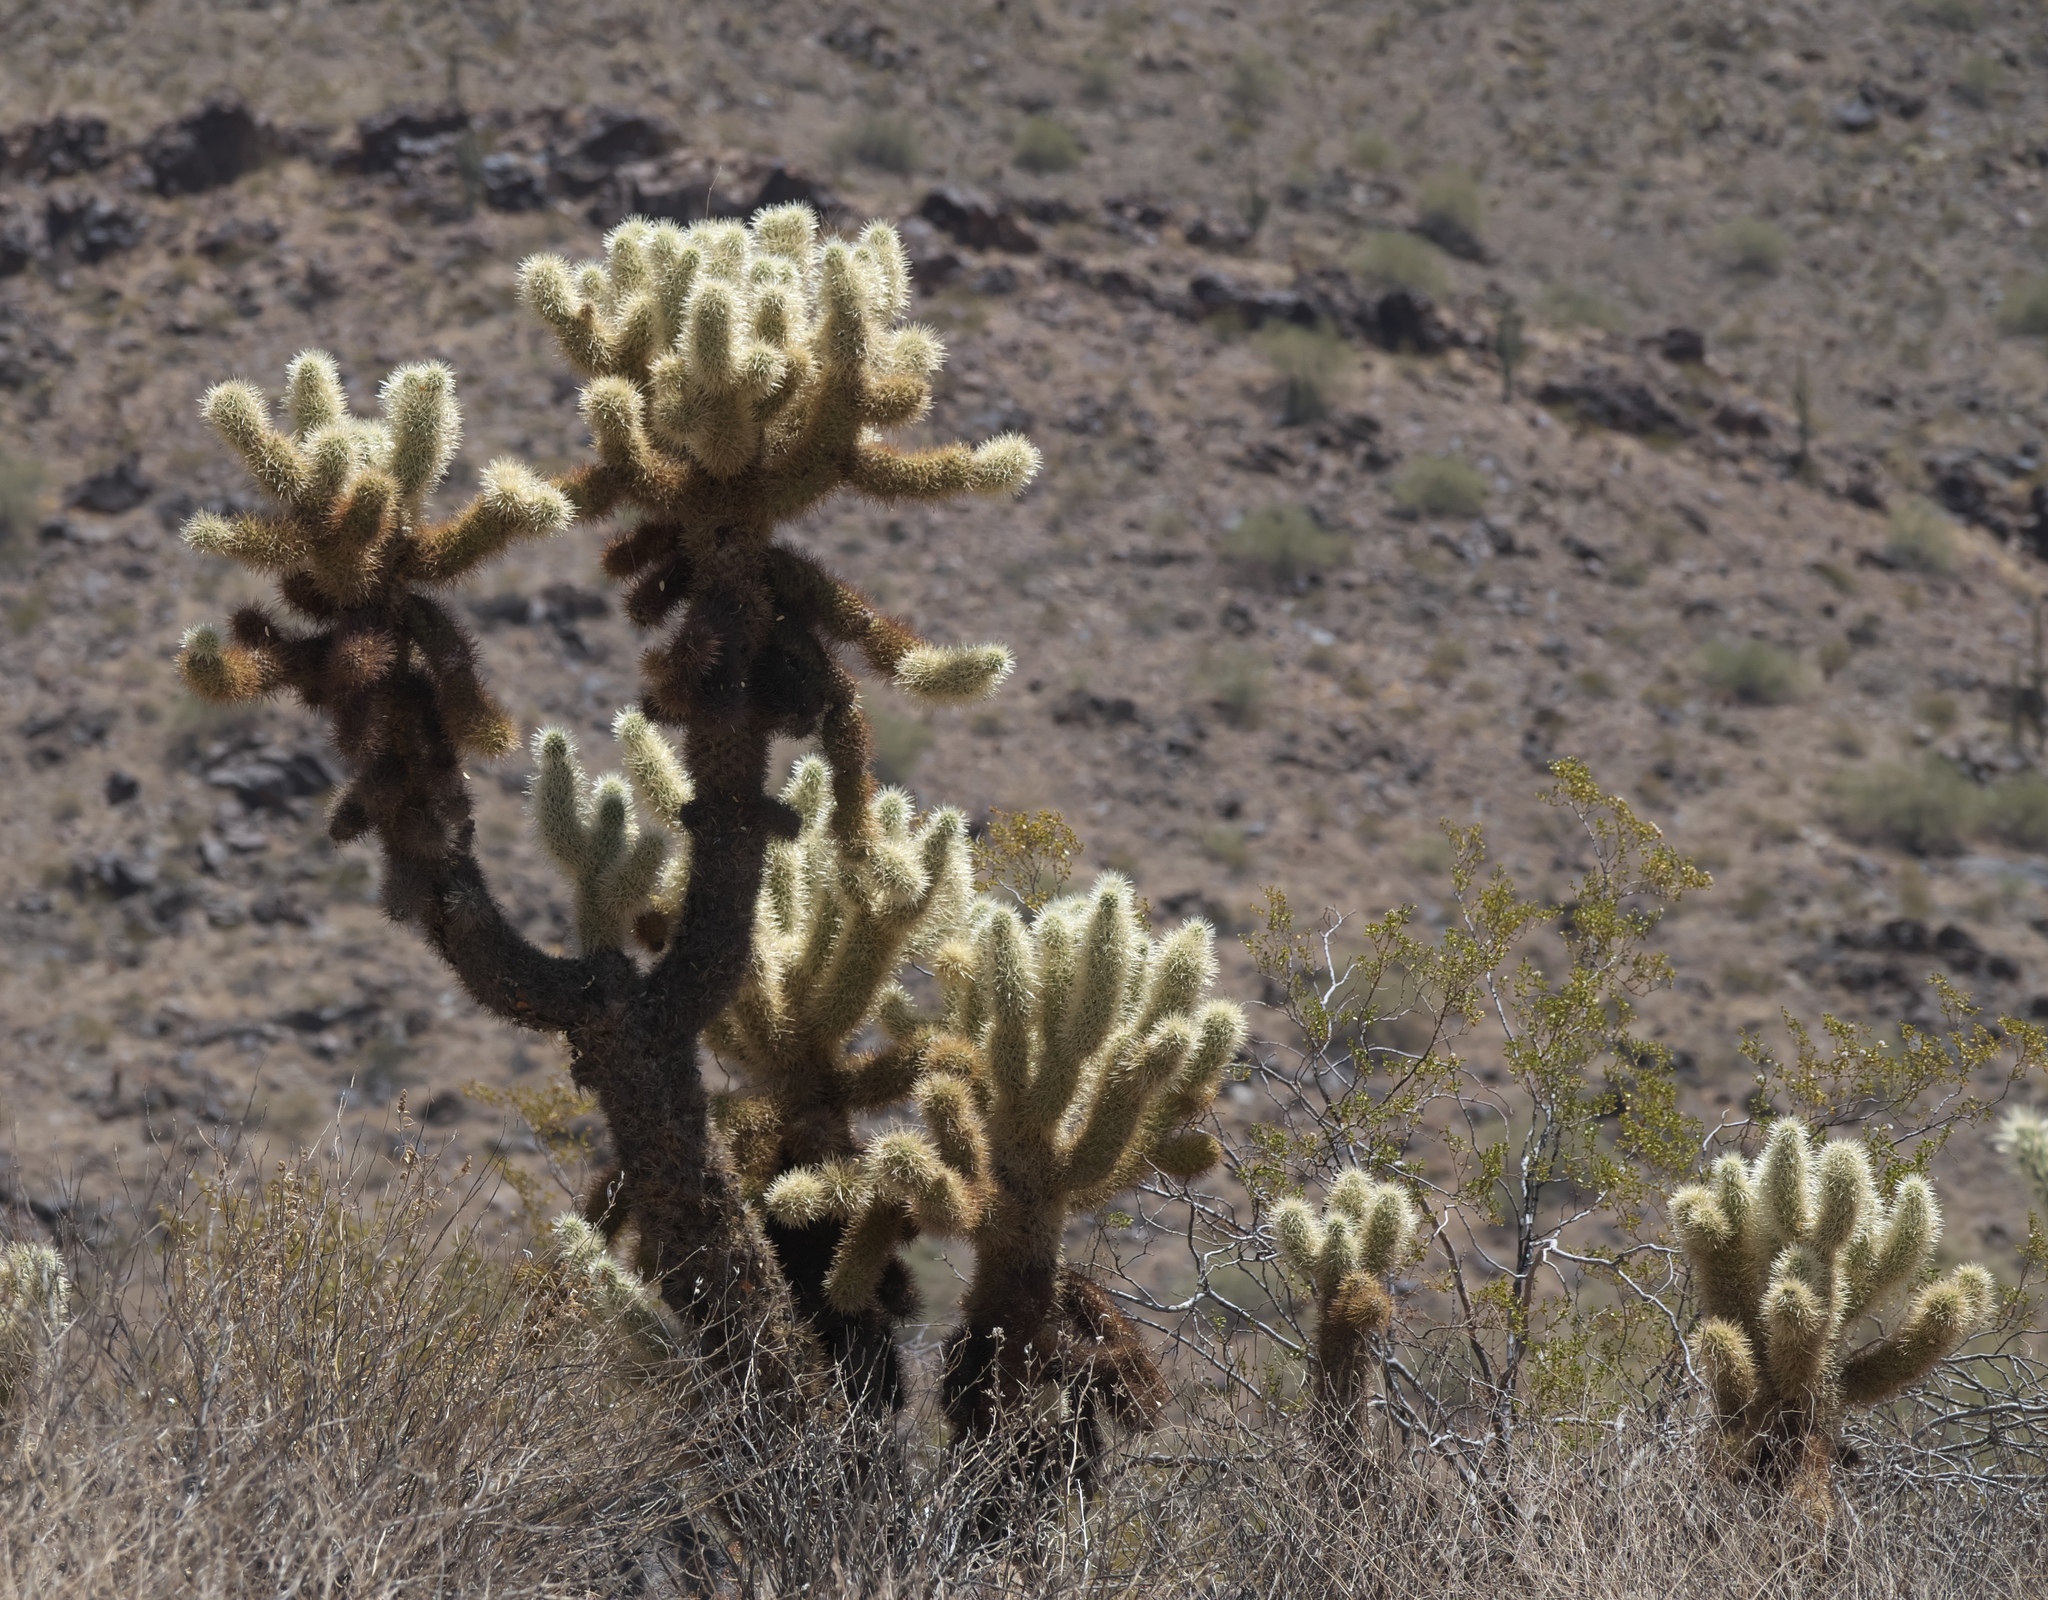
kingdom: Plantae
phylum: Tracheophyta
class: Magnoliopsida
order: Caryophyllales
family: Cactaceae
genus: Cylindropuntia
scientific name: Cylindropuntia fosbergii
